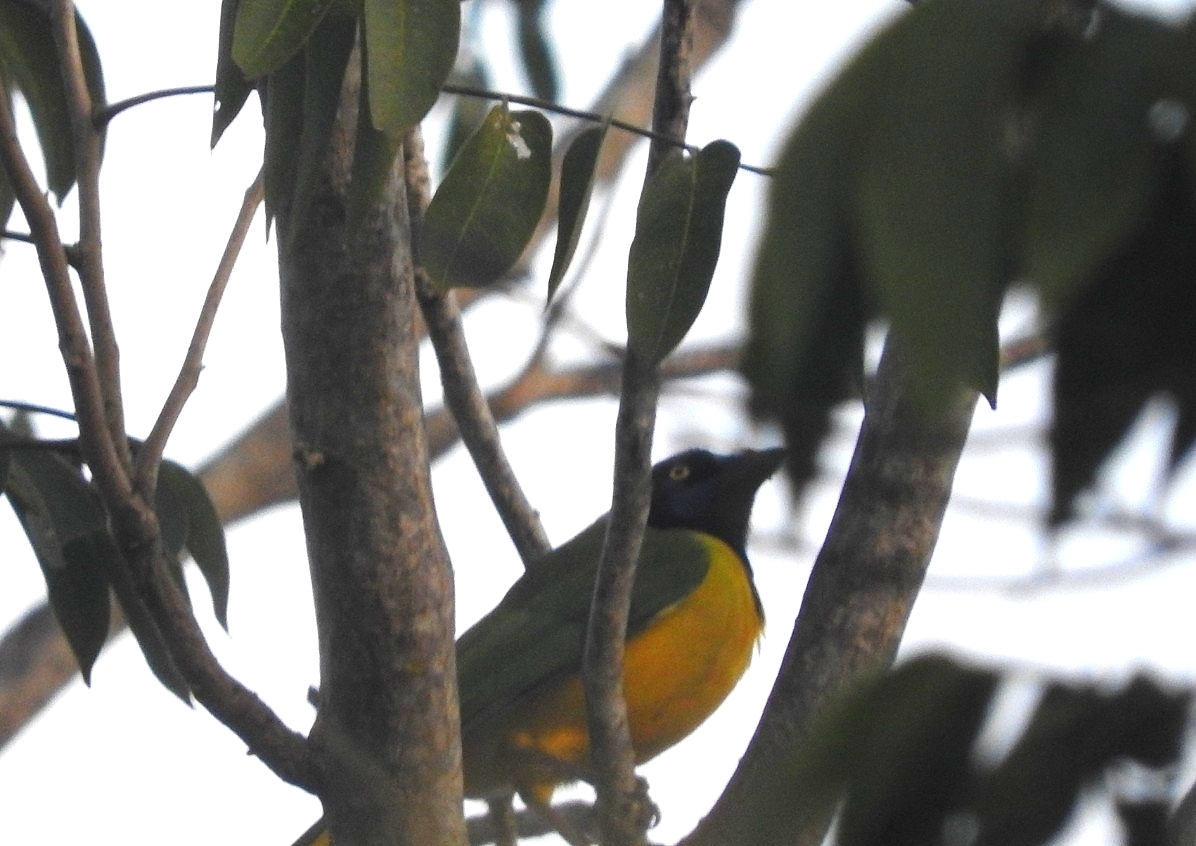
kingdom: Animalia
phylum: Chordata
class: Aves
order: Passeriformes
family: Corvidae
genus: Cyanocorax
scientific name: Cyanocorax yncas
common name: Green jay
